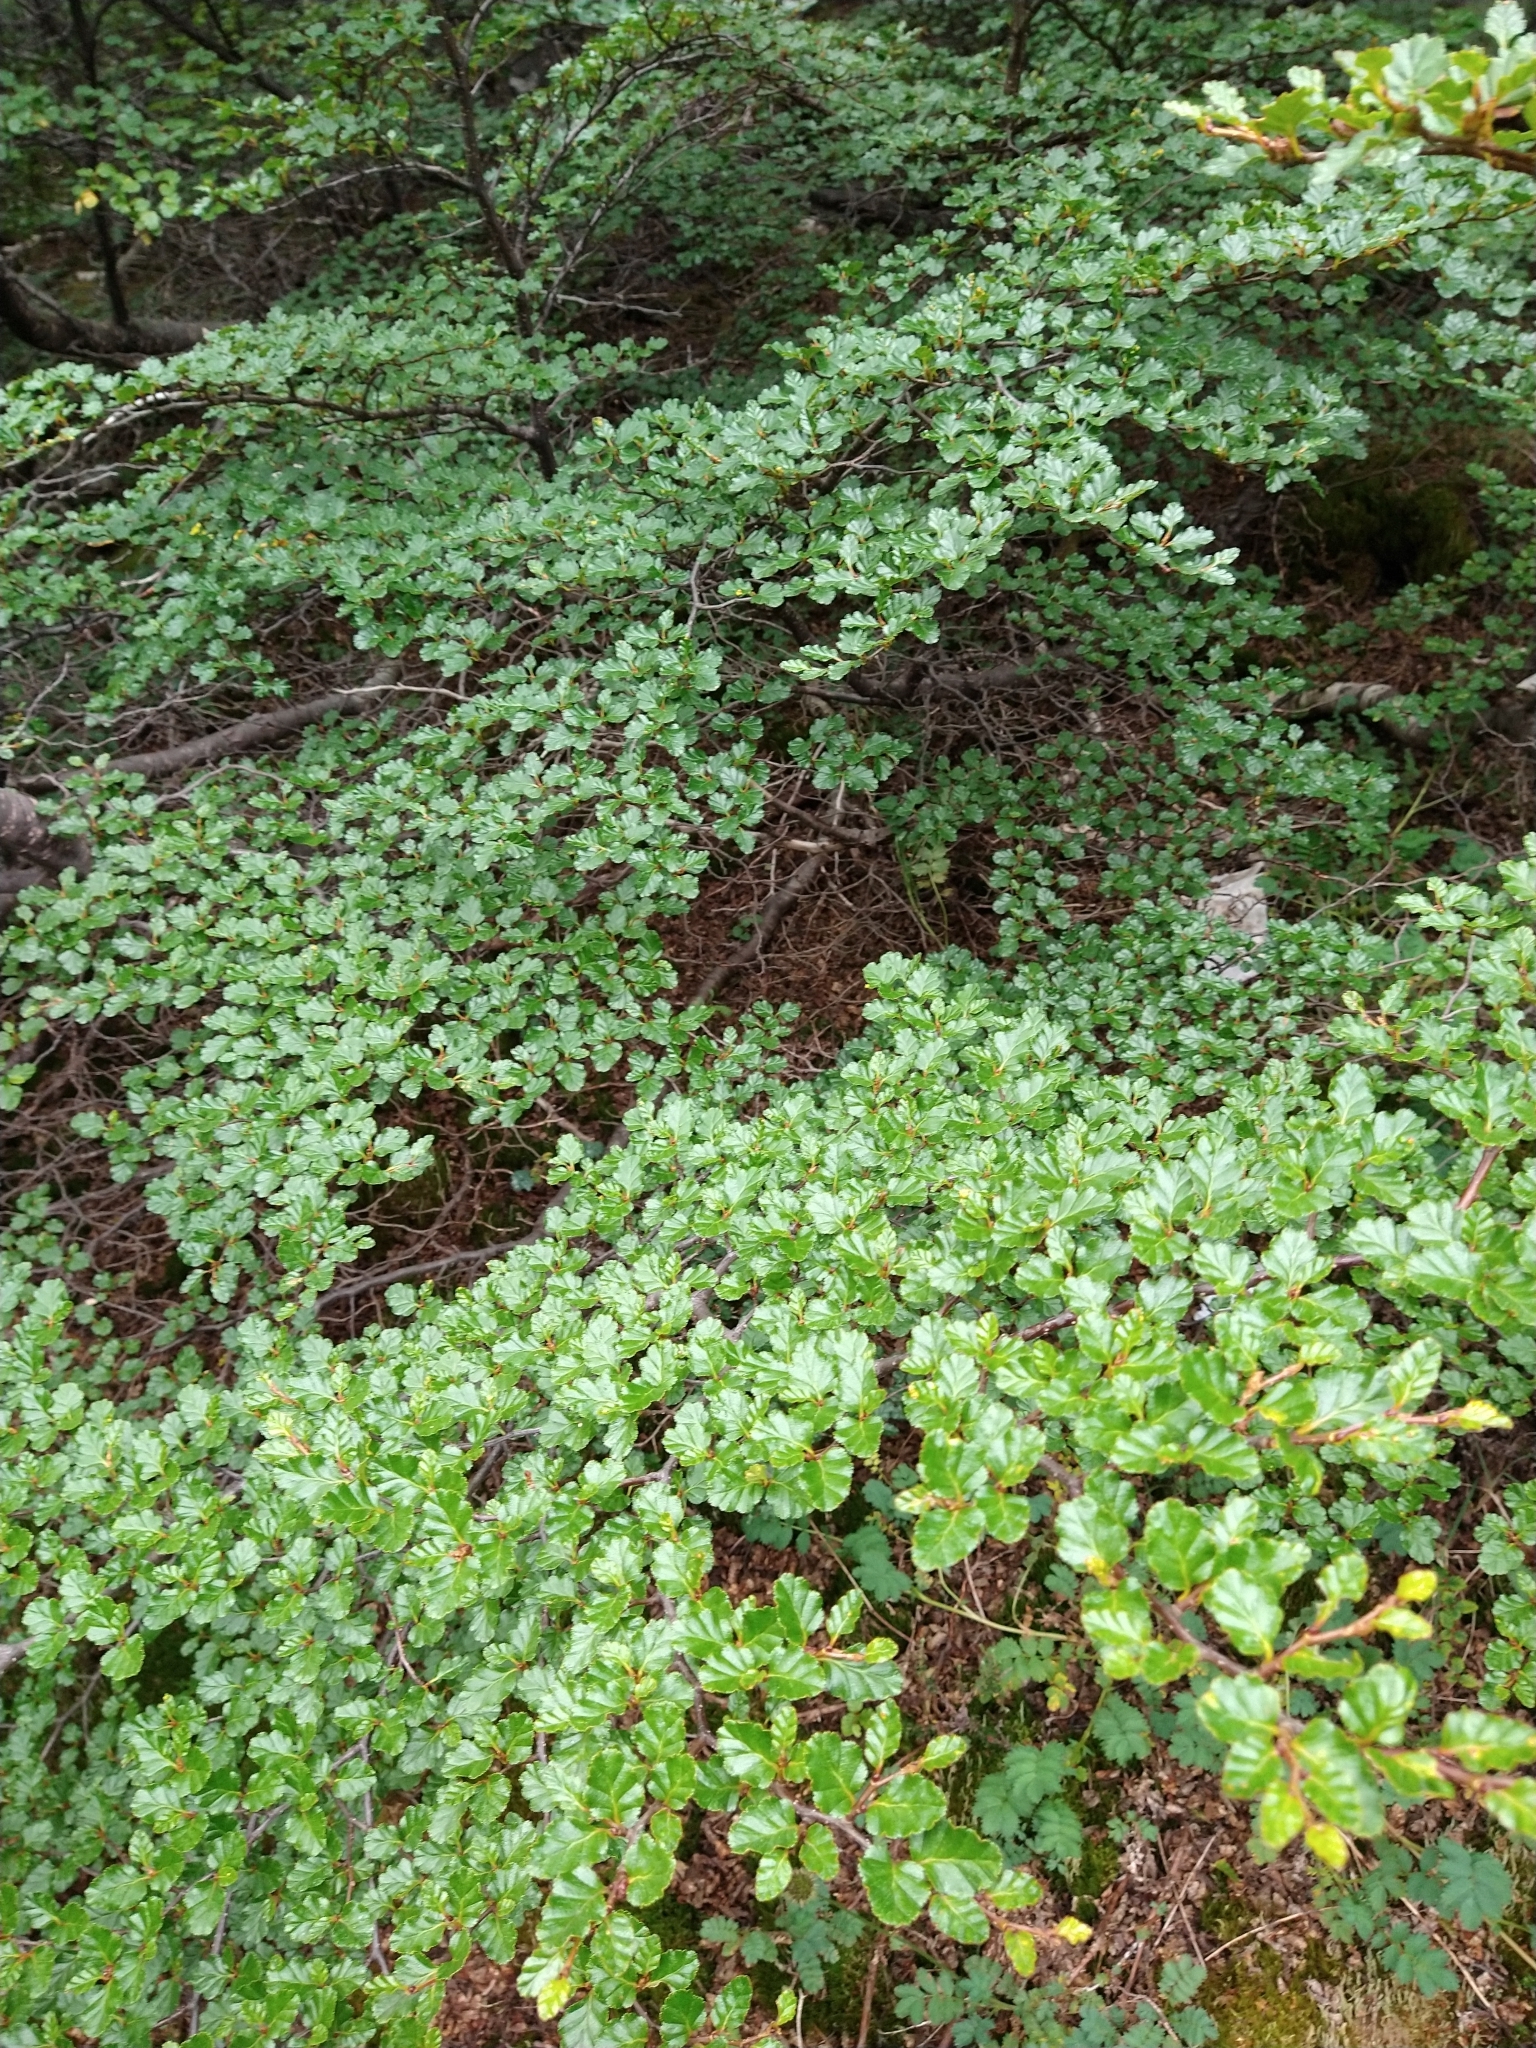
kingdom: Plantae
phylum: Tracheophyta
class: Magnoliopsida
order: Fagales
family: Nothofagaceae
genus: Nothofagus
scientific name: Nothofagus antarctica
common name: Antarctic beech
